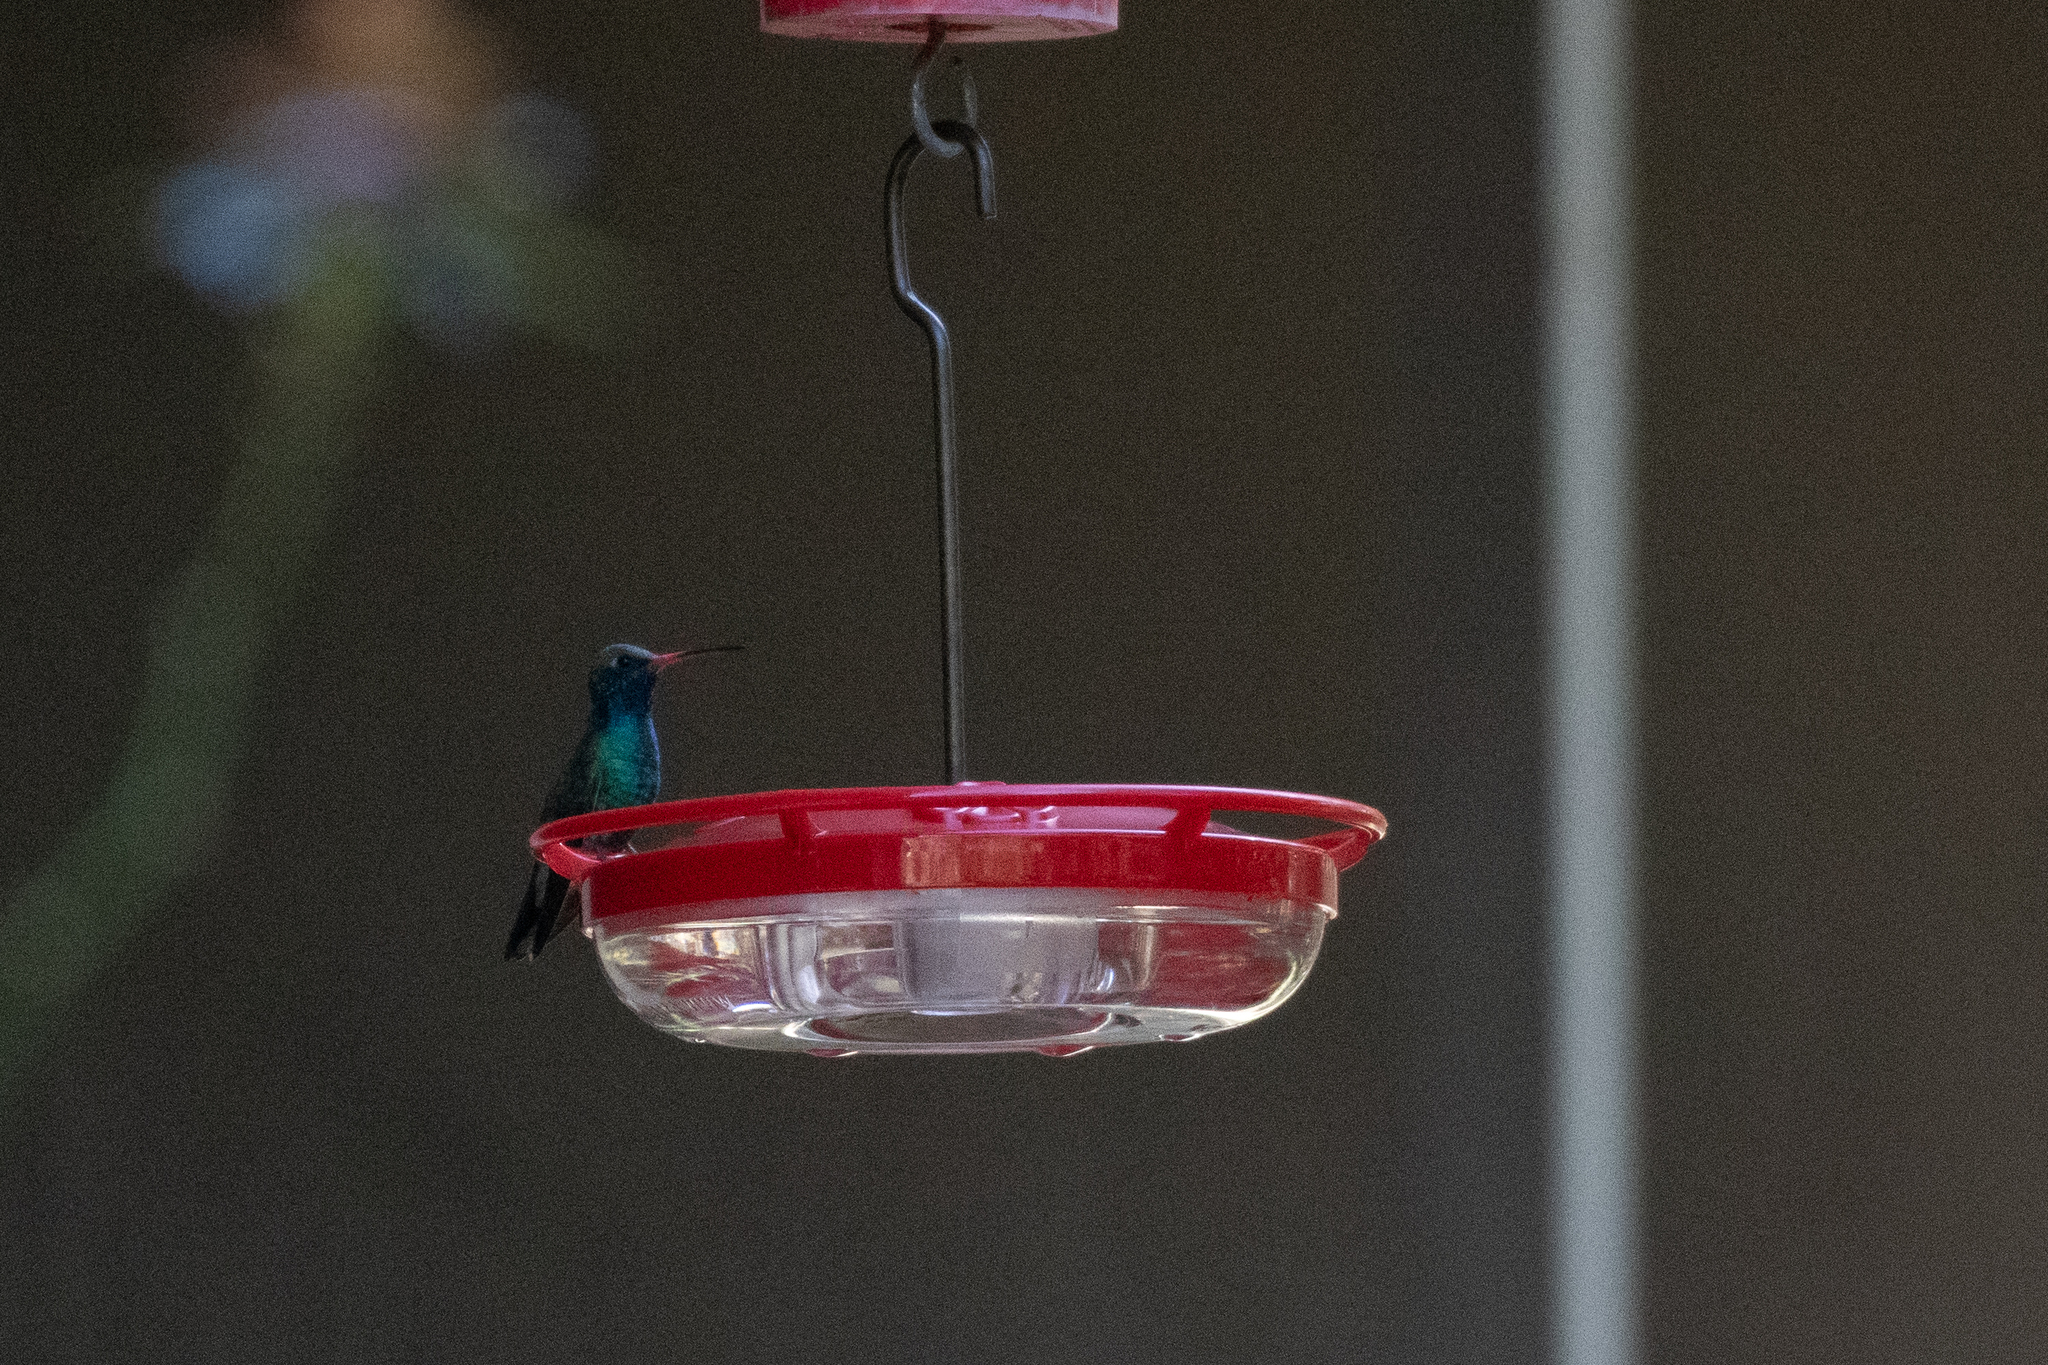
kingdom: Animalia
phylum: Chordata
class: Aves
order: Apodiformes
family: Trochilidae
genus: Cynanthus
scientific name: Cynanthus latirostris
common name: Broad-billed hummingbird
